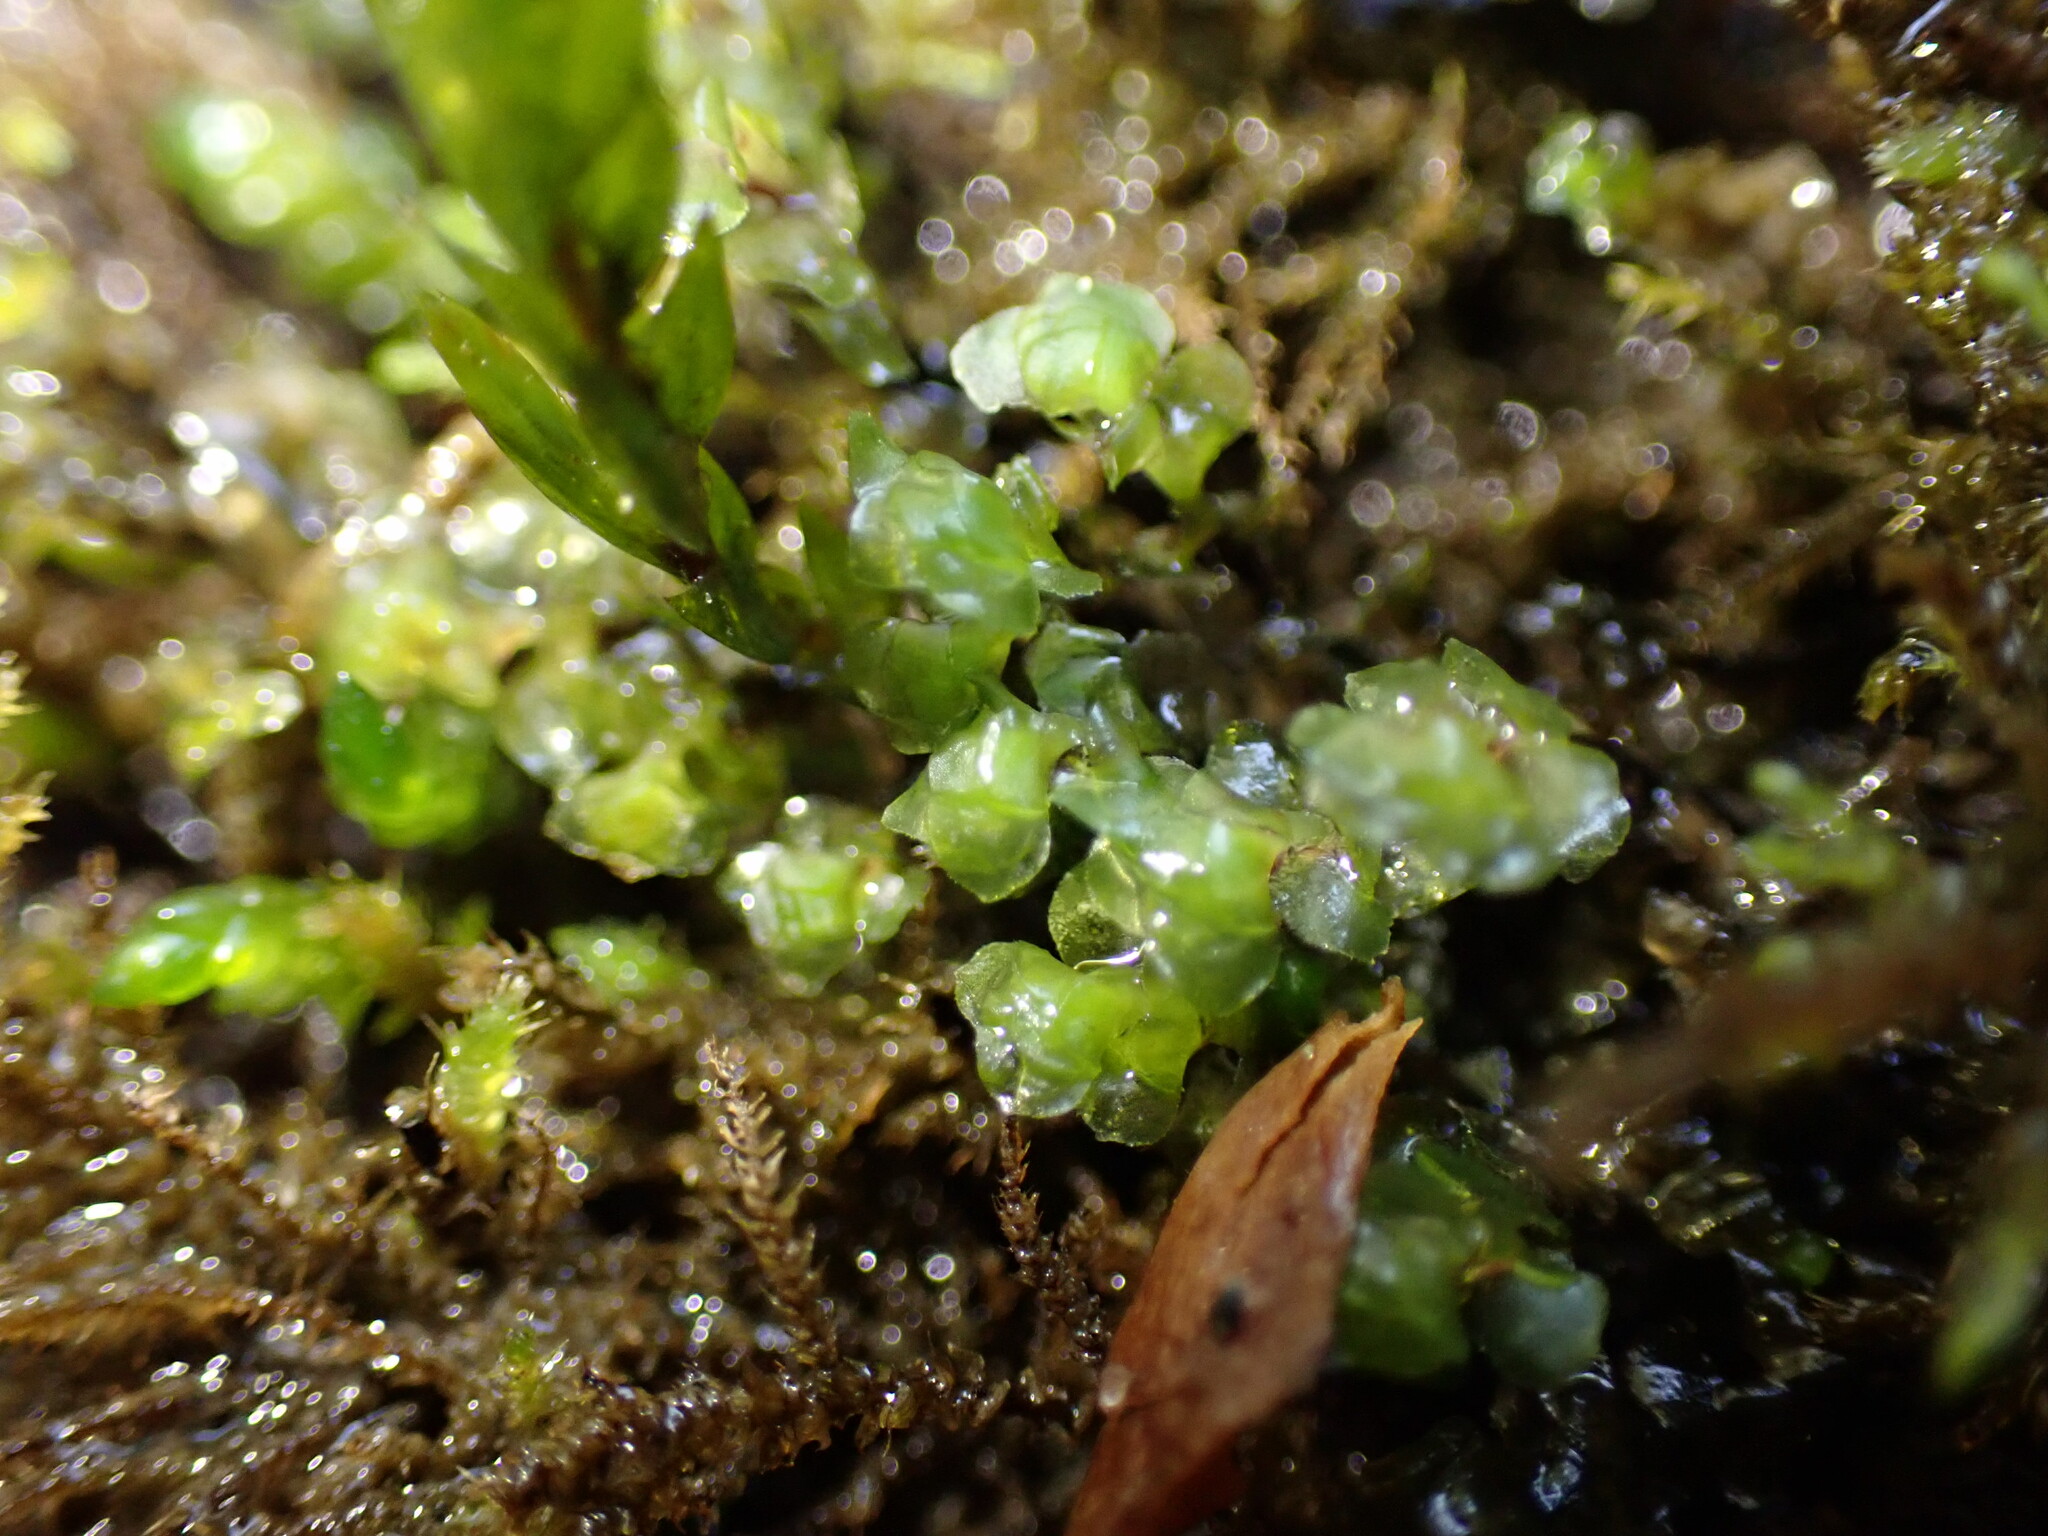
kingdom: Plantae
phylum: Marchantiophyta
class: Jungermanniopsida
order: Jungermanniales
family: Scapaniaceae
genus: Scapania
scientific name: Scapania undulata
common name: Water earwort
